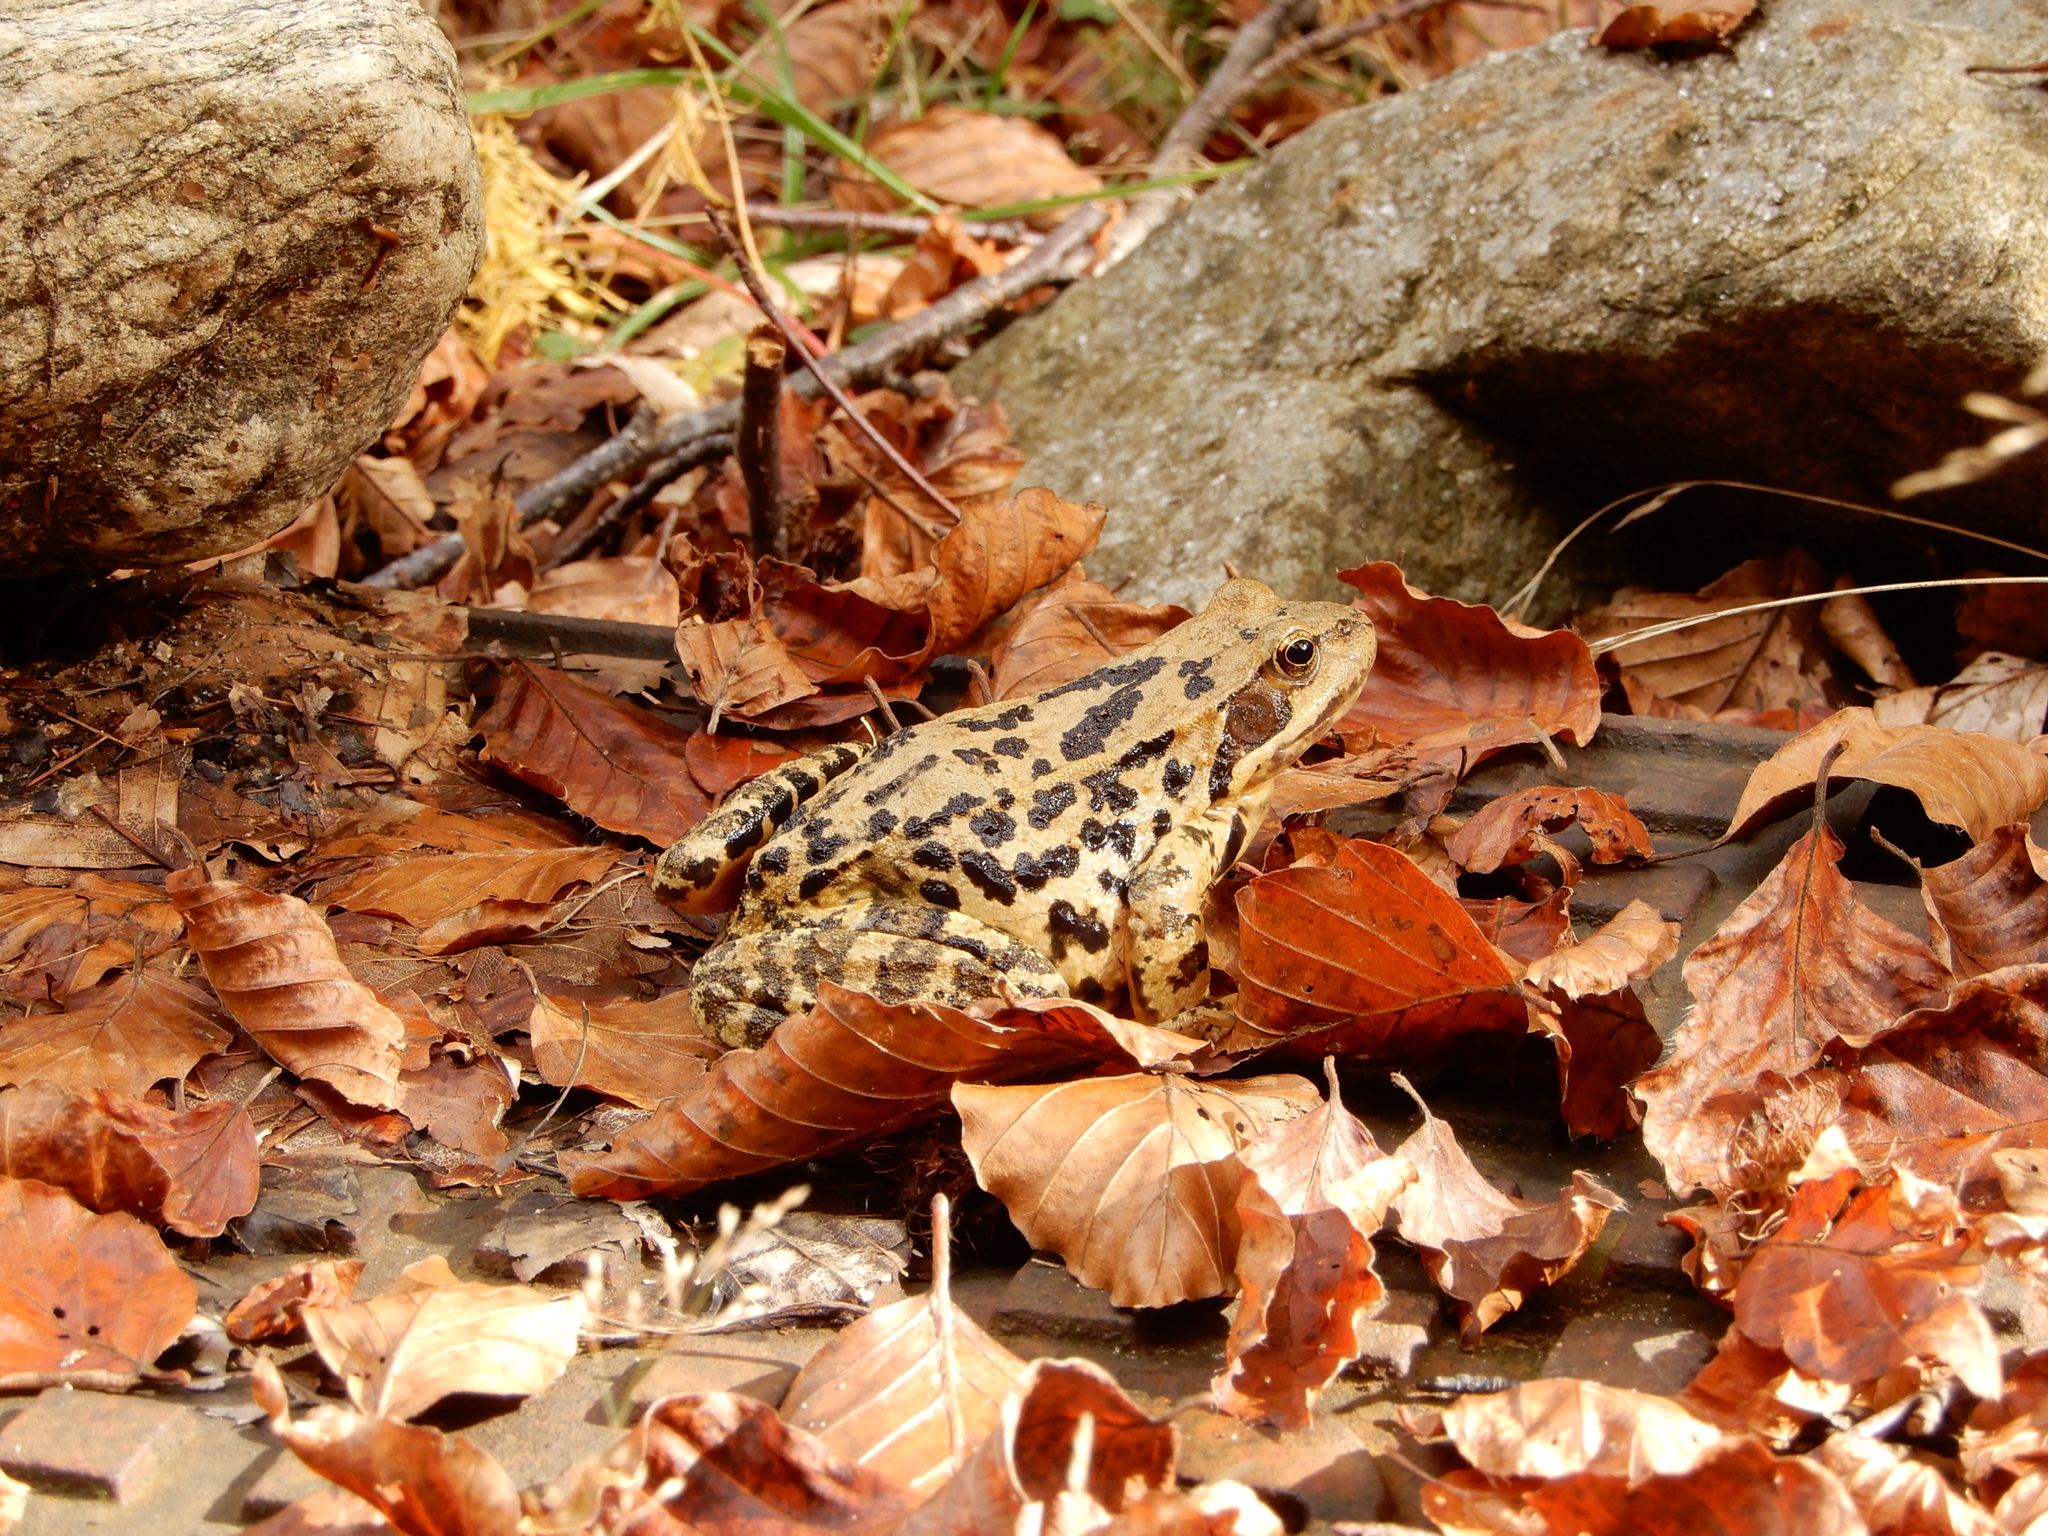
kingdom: Animalia
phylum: Chordata
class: Amphibia
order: Anura
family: Ranidae
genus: Rana
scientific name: Rana temporaria
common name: Common frog
